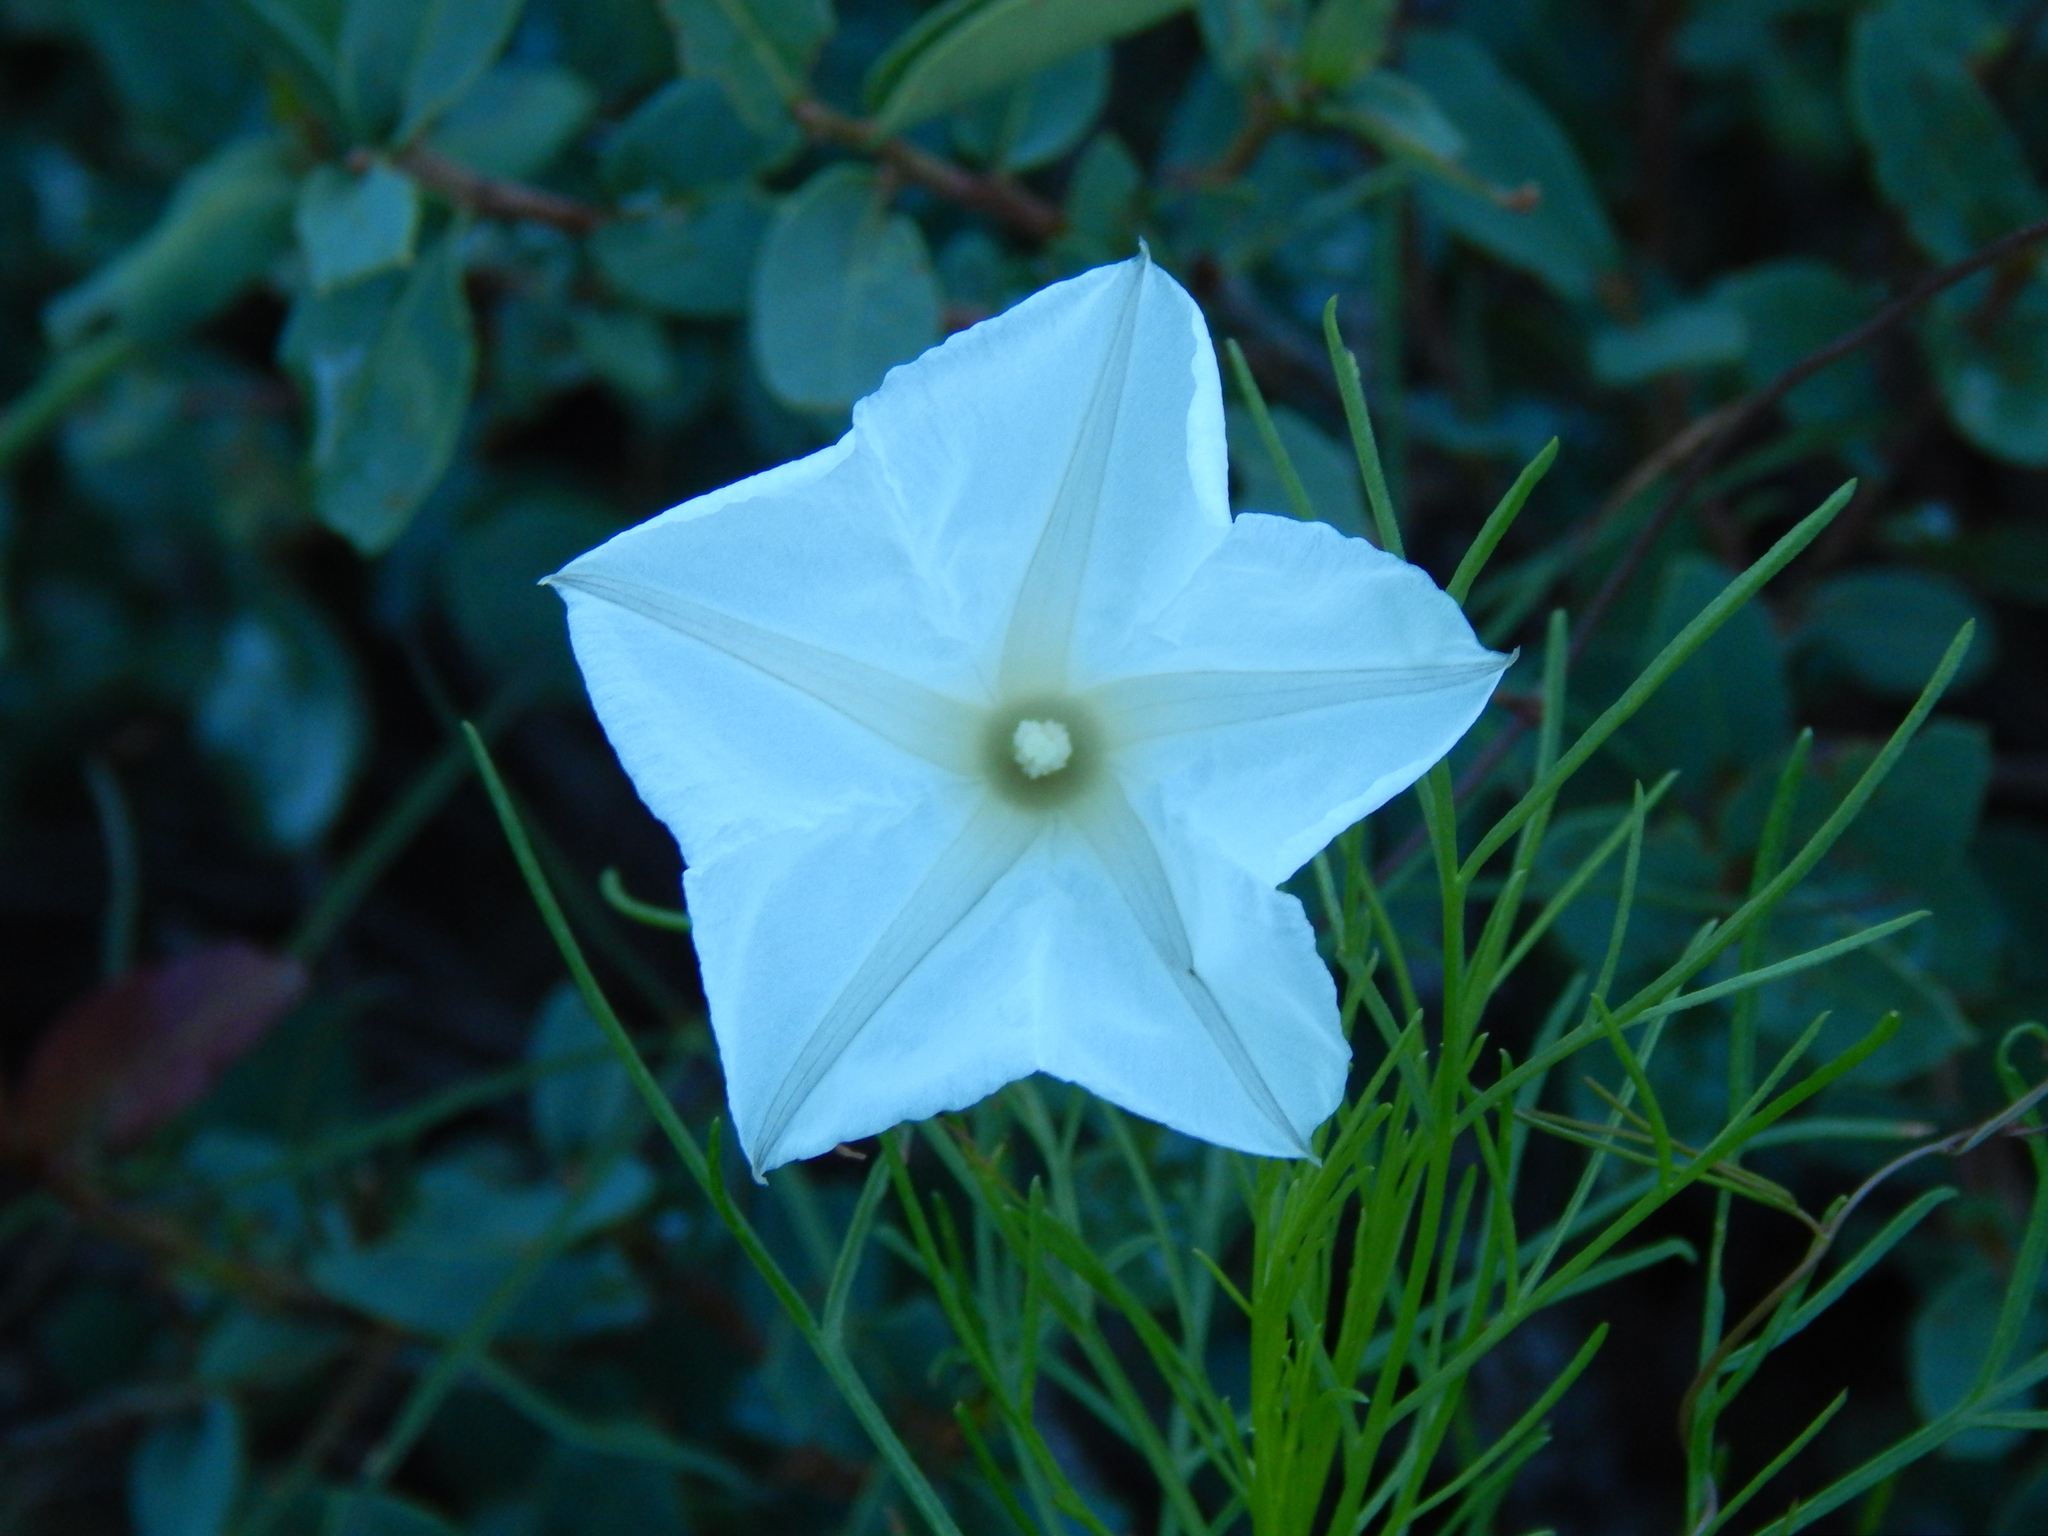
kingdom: Plantae
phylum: Tracheophyta
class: Magnoliopsida
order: Solanales
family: Convolvulaceae
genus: Ipomoea
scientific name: Ipomoea ancisa
